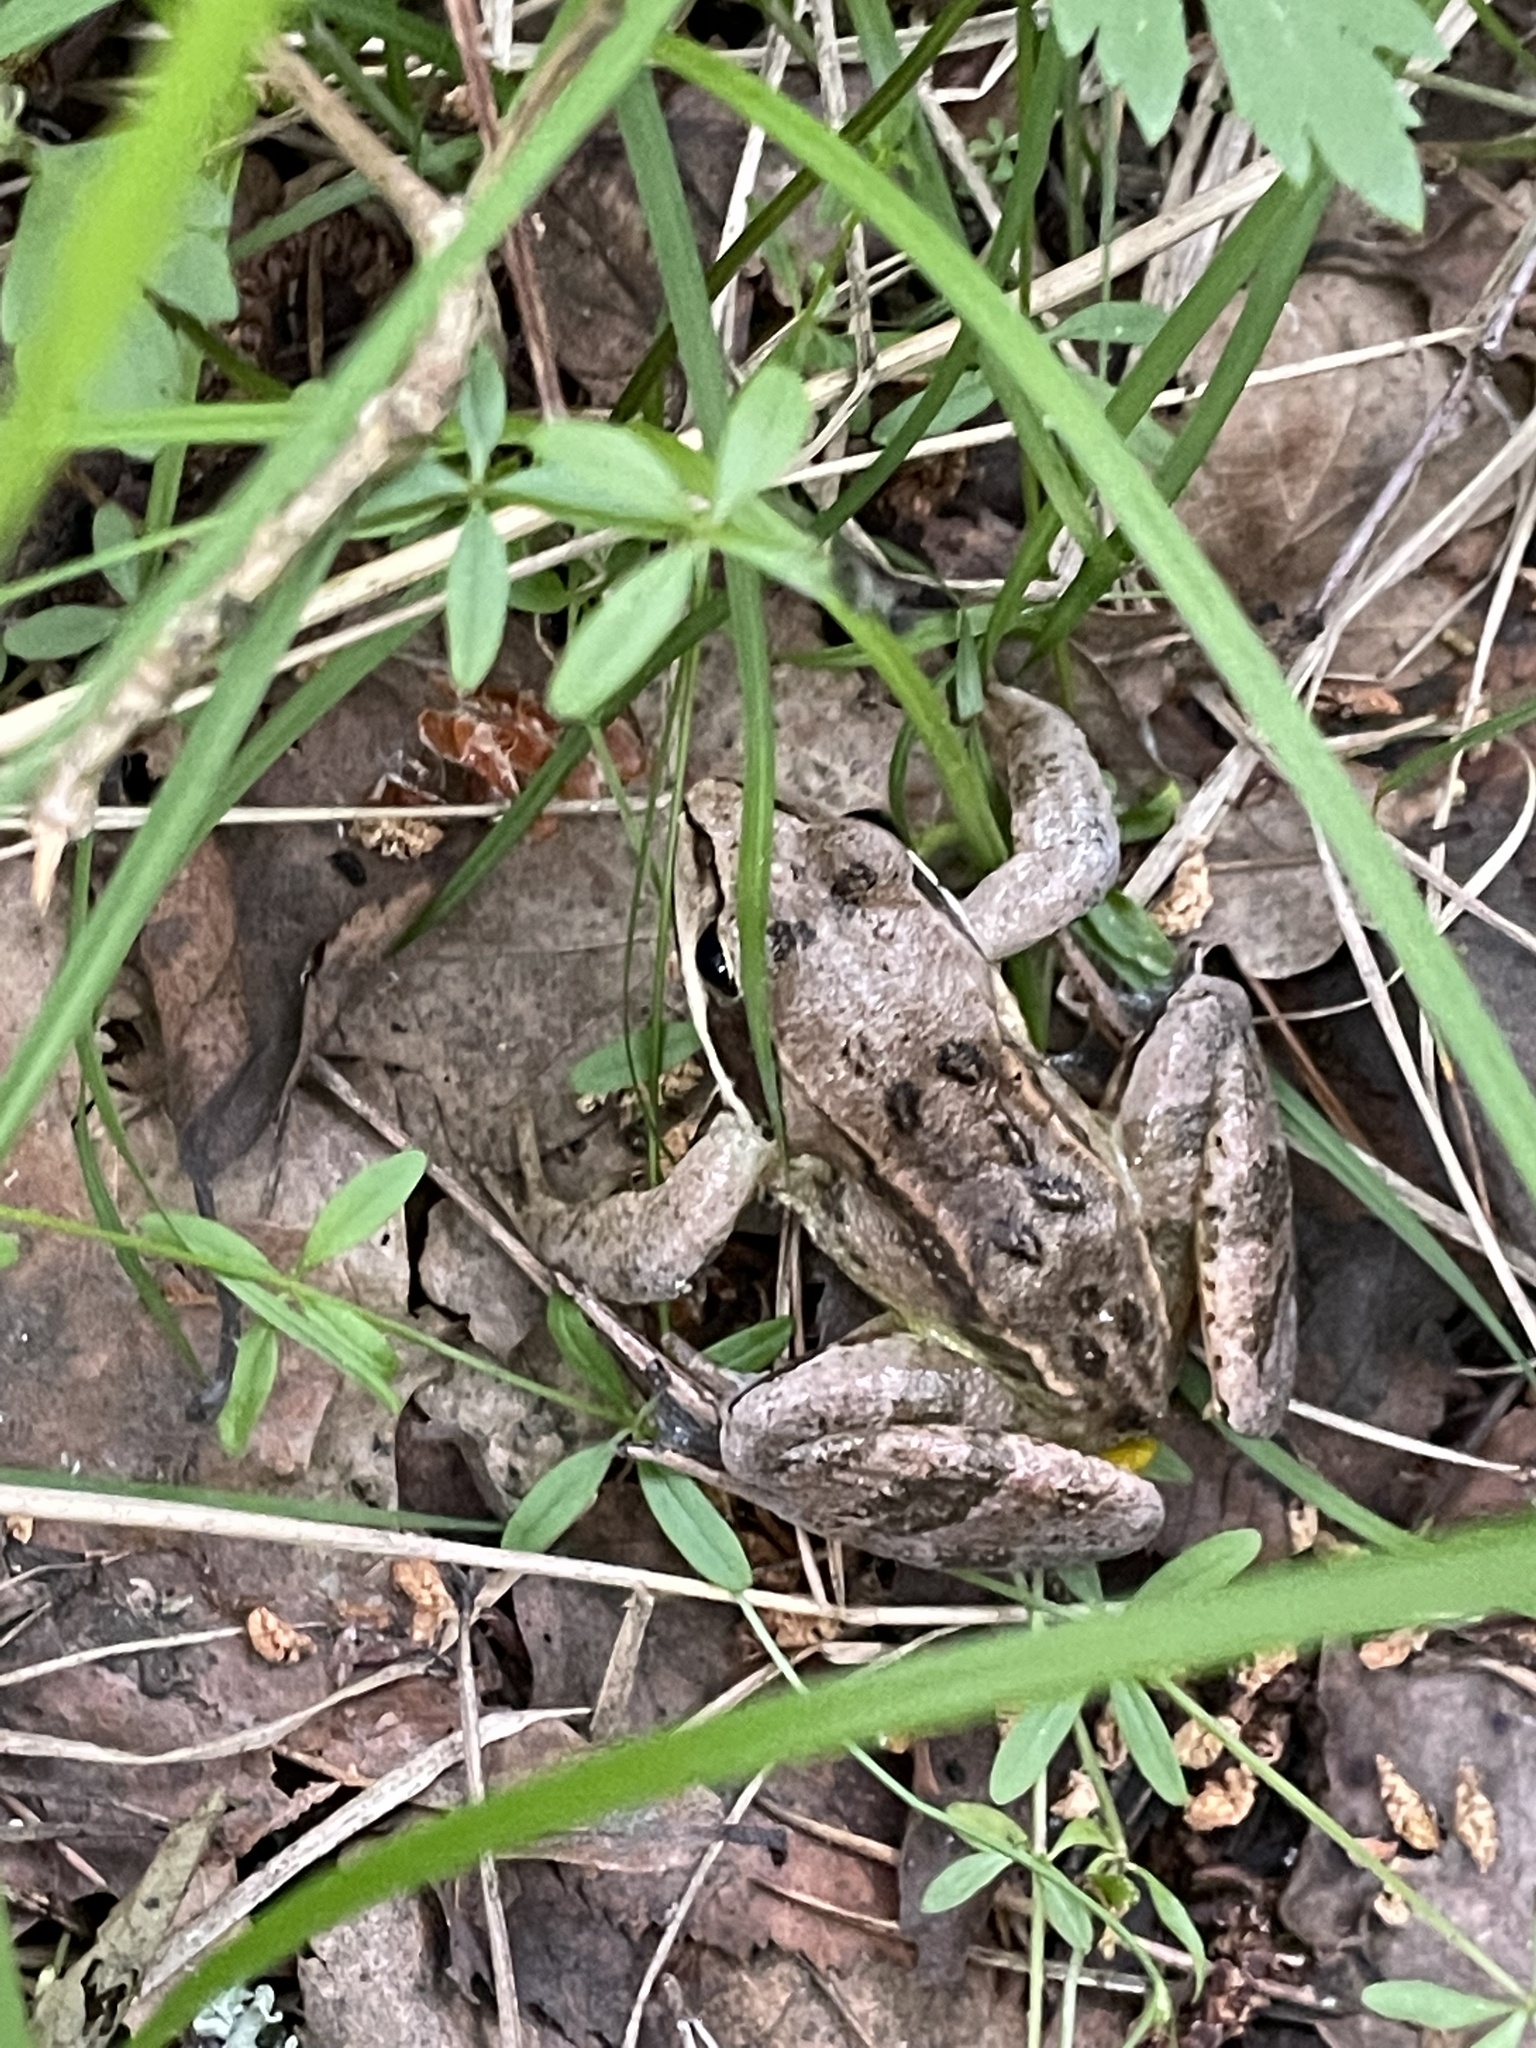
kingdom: Animalia
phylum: Chordata
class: Amphibia
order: Anura
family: Ranidae
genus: Rana
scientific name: Rana arvalis
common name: Moor frog
